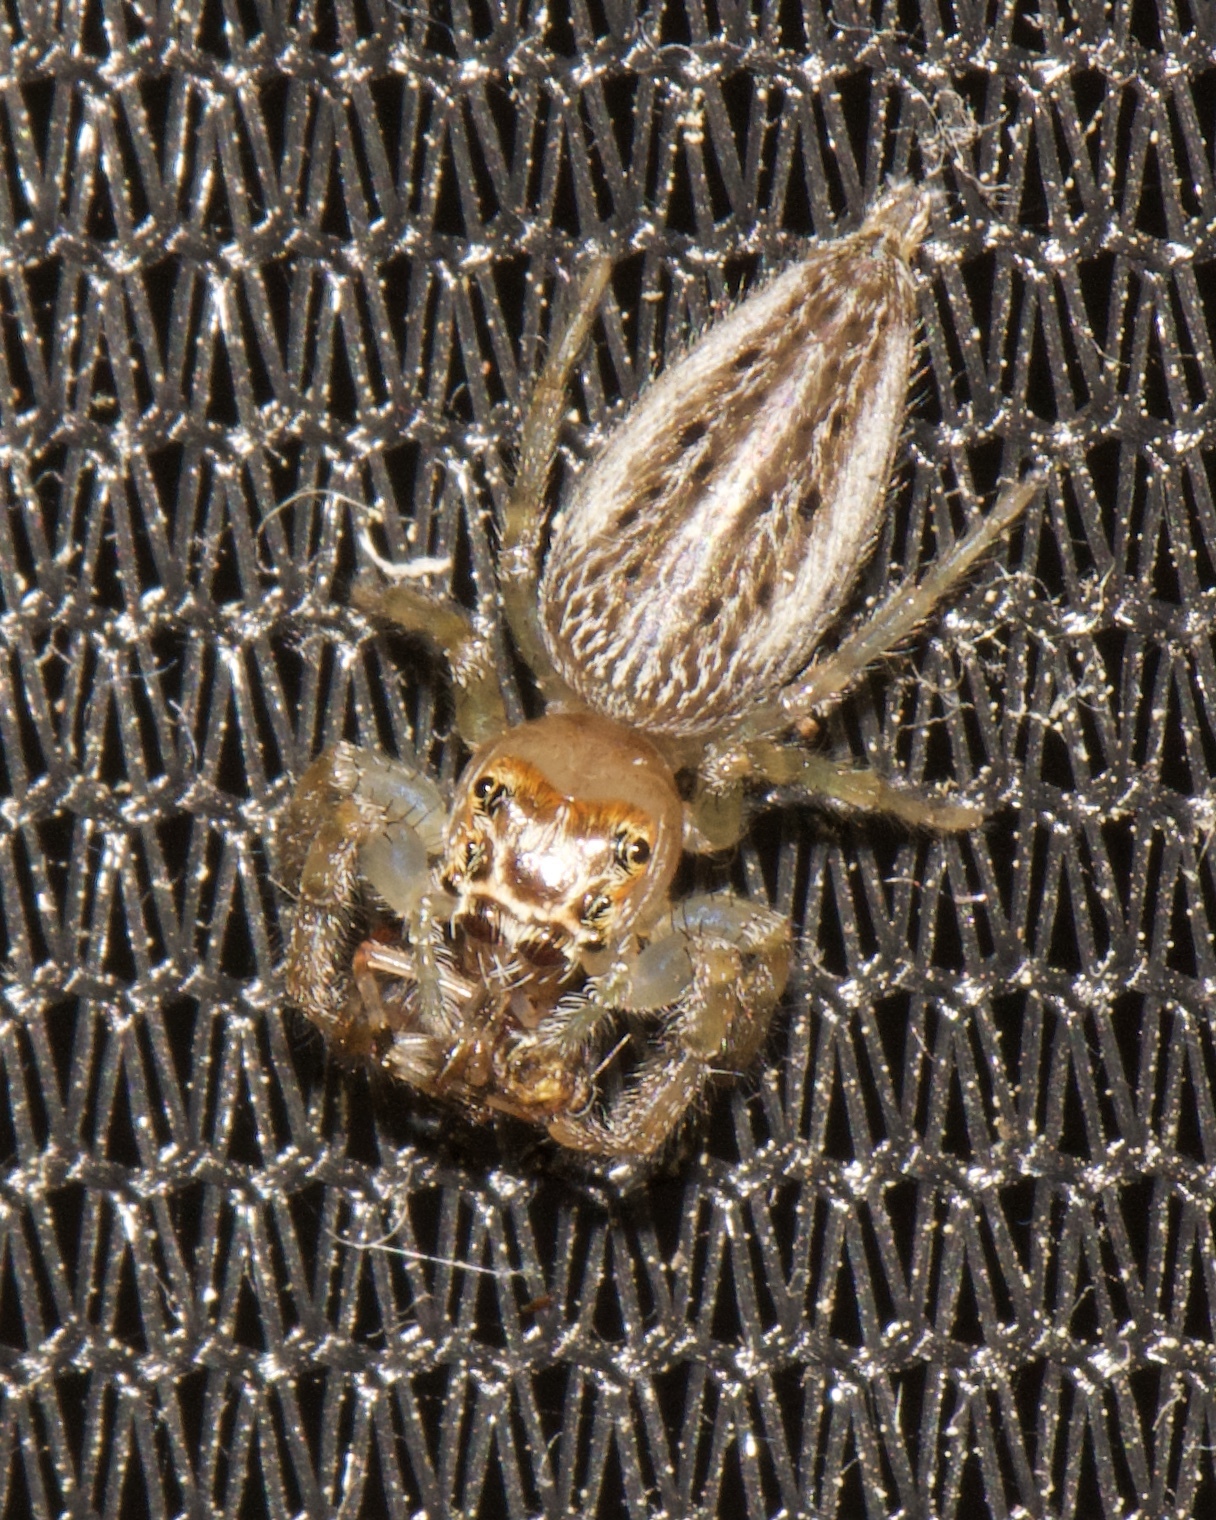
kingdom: Animalia
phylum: Arthropoda
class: Arachnida
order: Araneae
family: Salticidae
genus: Colonus
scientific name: Colonus sylvanus
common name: Jumping spiders
